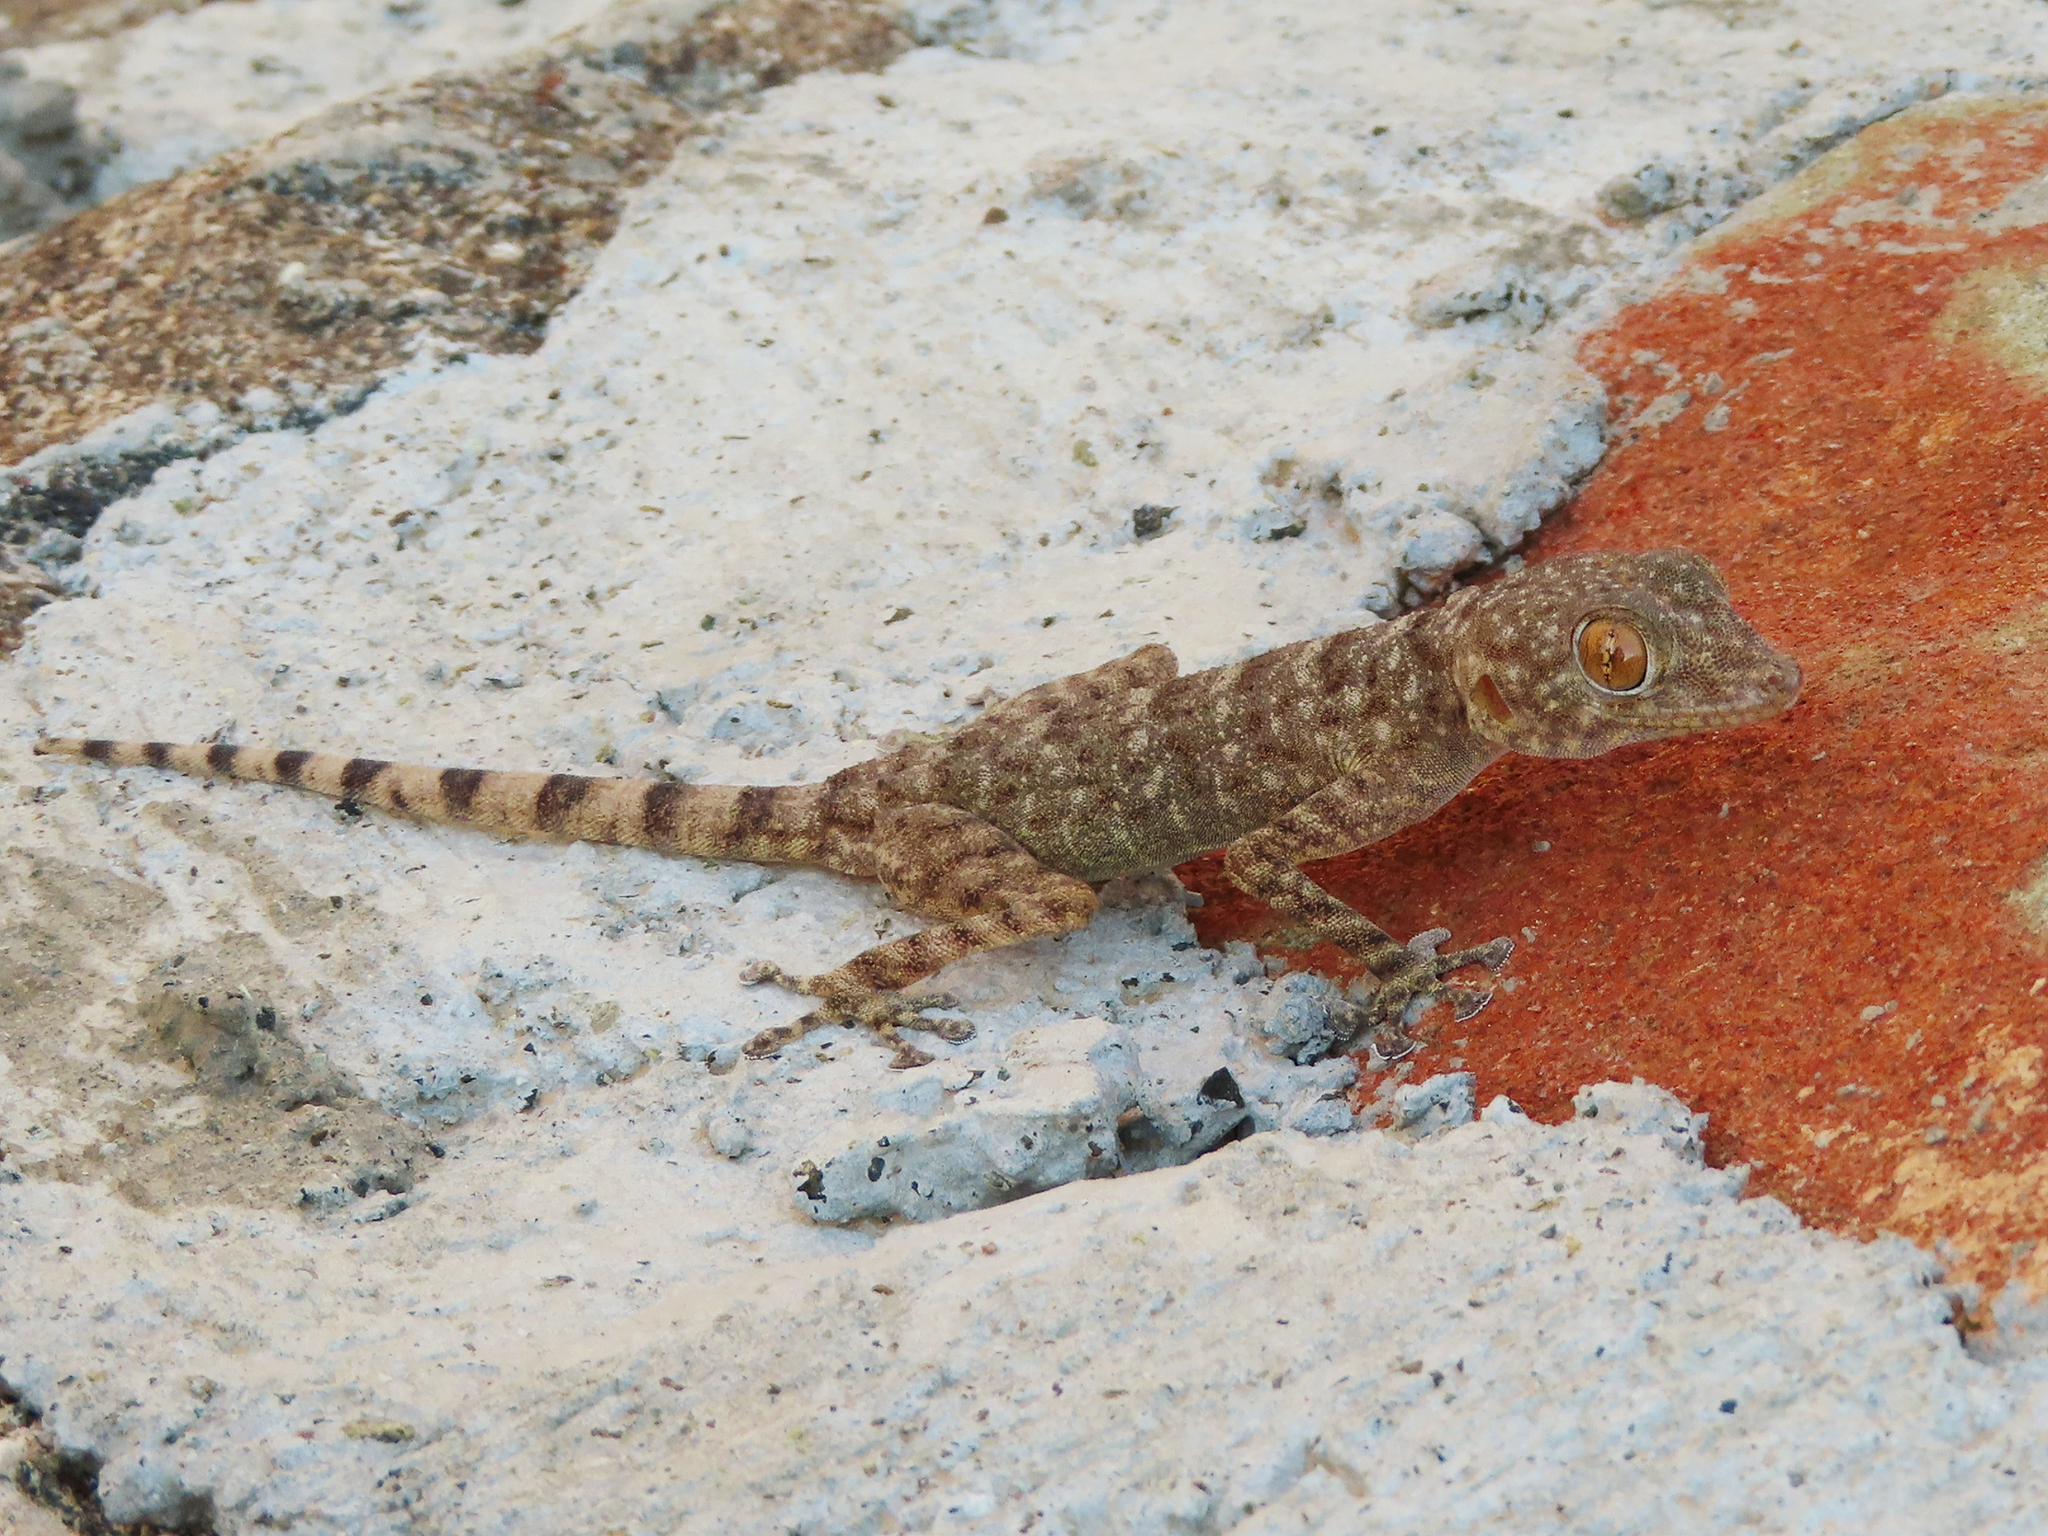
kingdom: Animalia
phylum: Chordata
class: Squamata
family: Phyllodactylidae
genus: Ptyodactylus
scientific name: Ptyodactylus orlovi
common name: Orlov's fan-footed gecko
